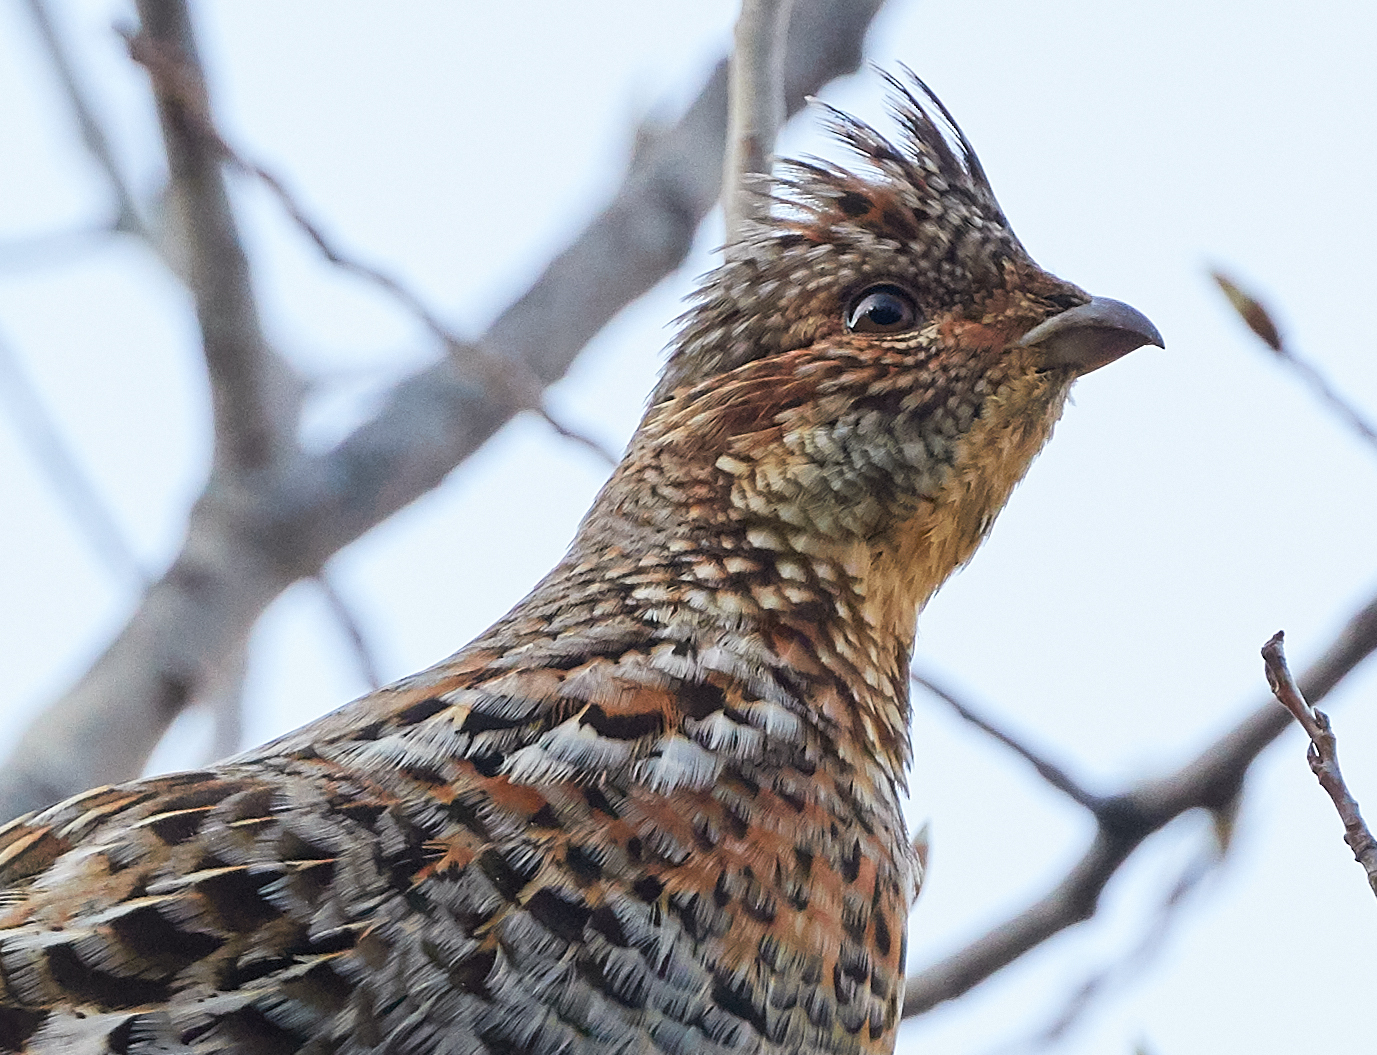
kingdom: Animalia
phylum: Chordata
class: Aves
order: Galliformes
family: Phasianidae
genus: Bonasa
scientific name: Bonasa umbellus
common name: Ruffed grouse
